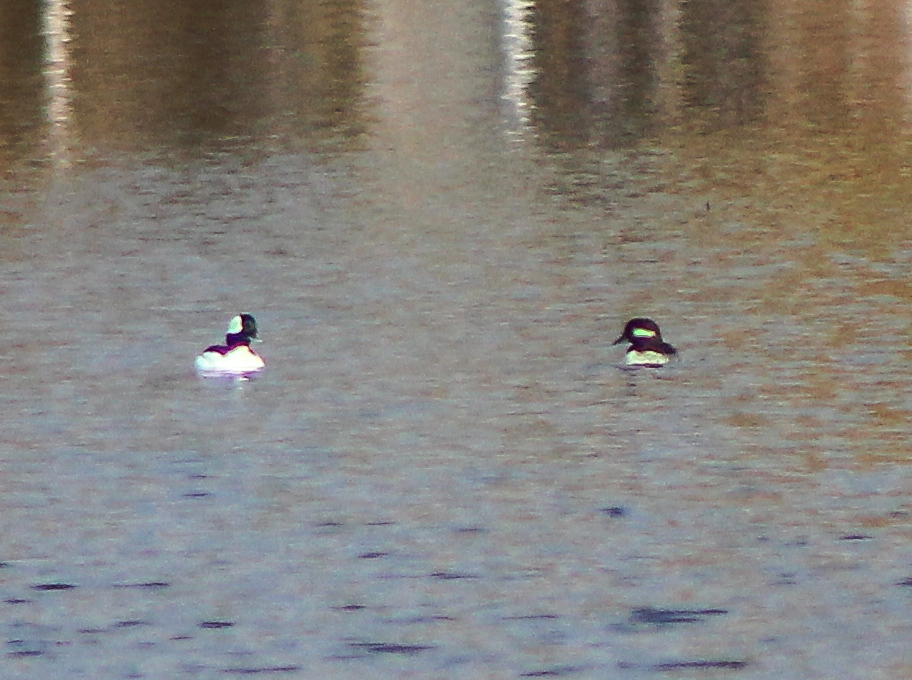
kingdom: Animalia
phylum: Chordata
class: Aves
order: Anseriformes
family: Anatidae
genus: Bucephala
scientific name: Bucephala albeola
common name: Bufflehead
